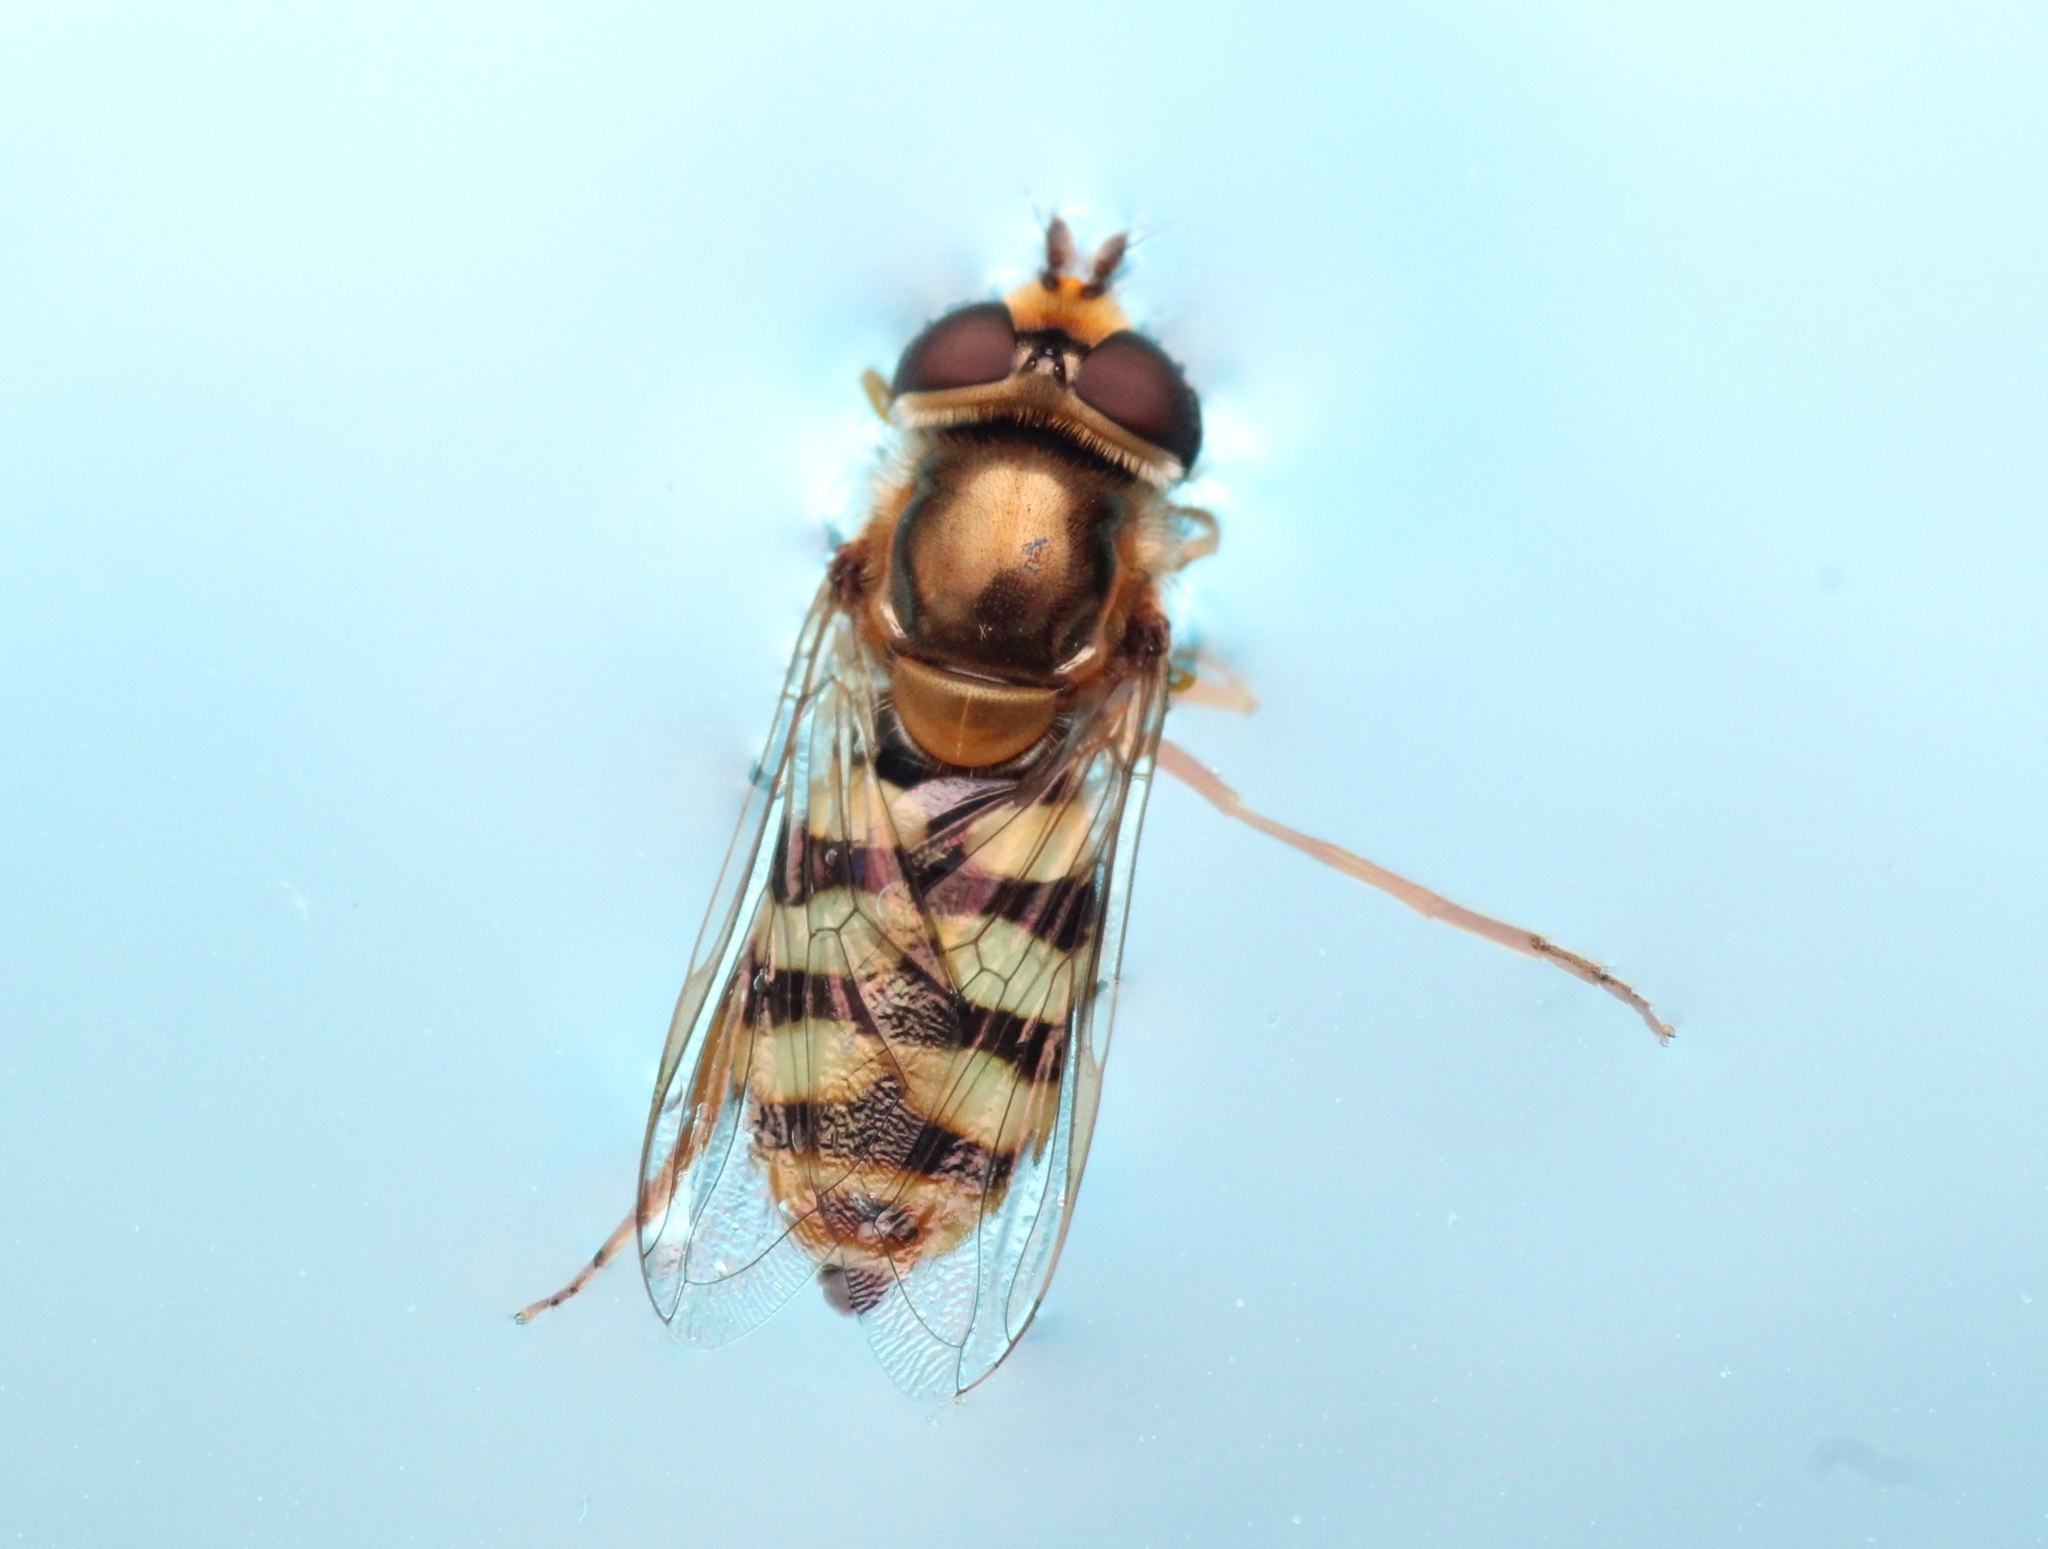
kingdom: Animalia
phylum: Arthropoda
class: Insecta
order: Diptera
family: Syrphidae
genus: Eupeodes
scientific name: Eupeodes corollae
